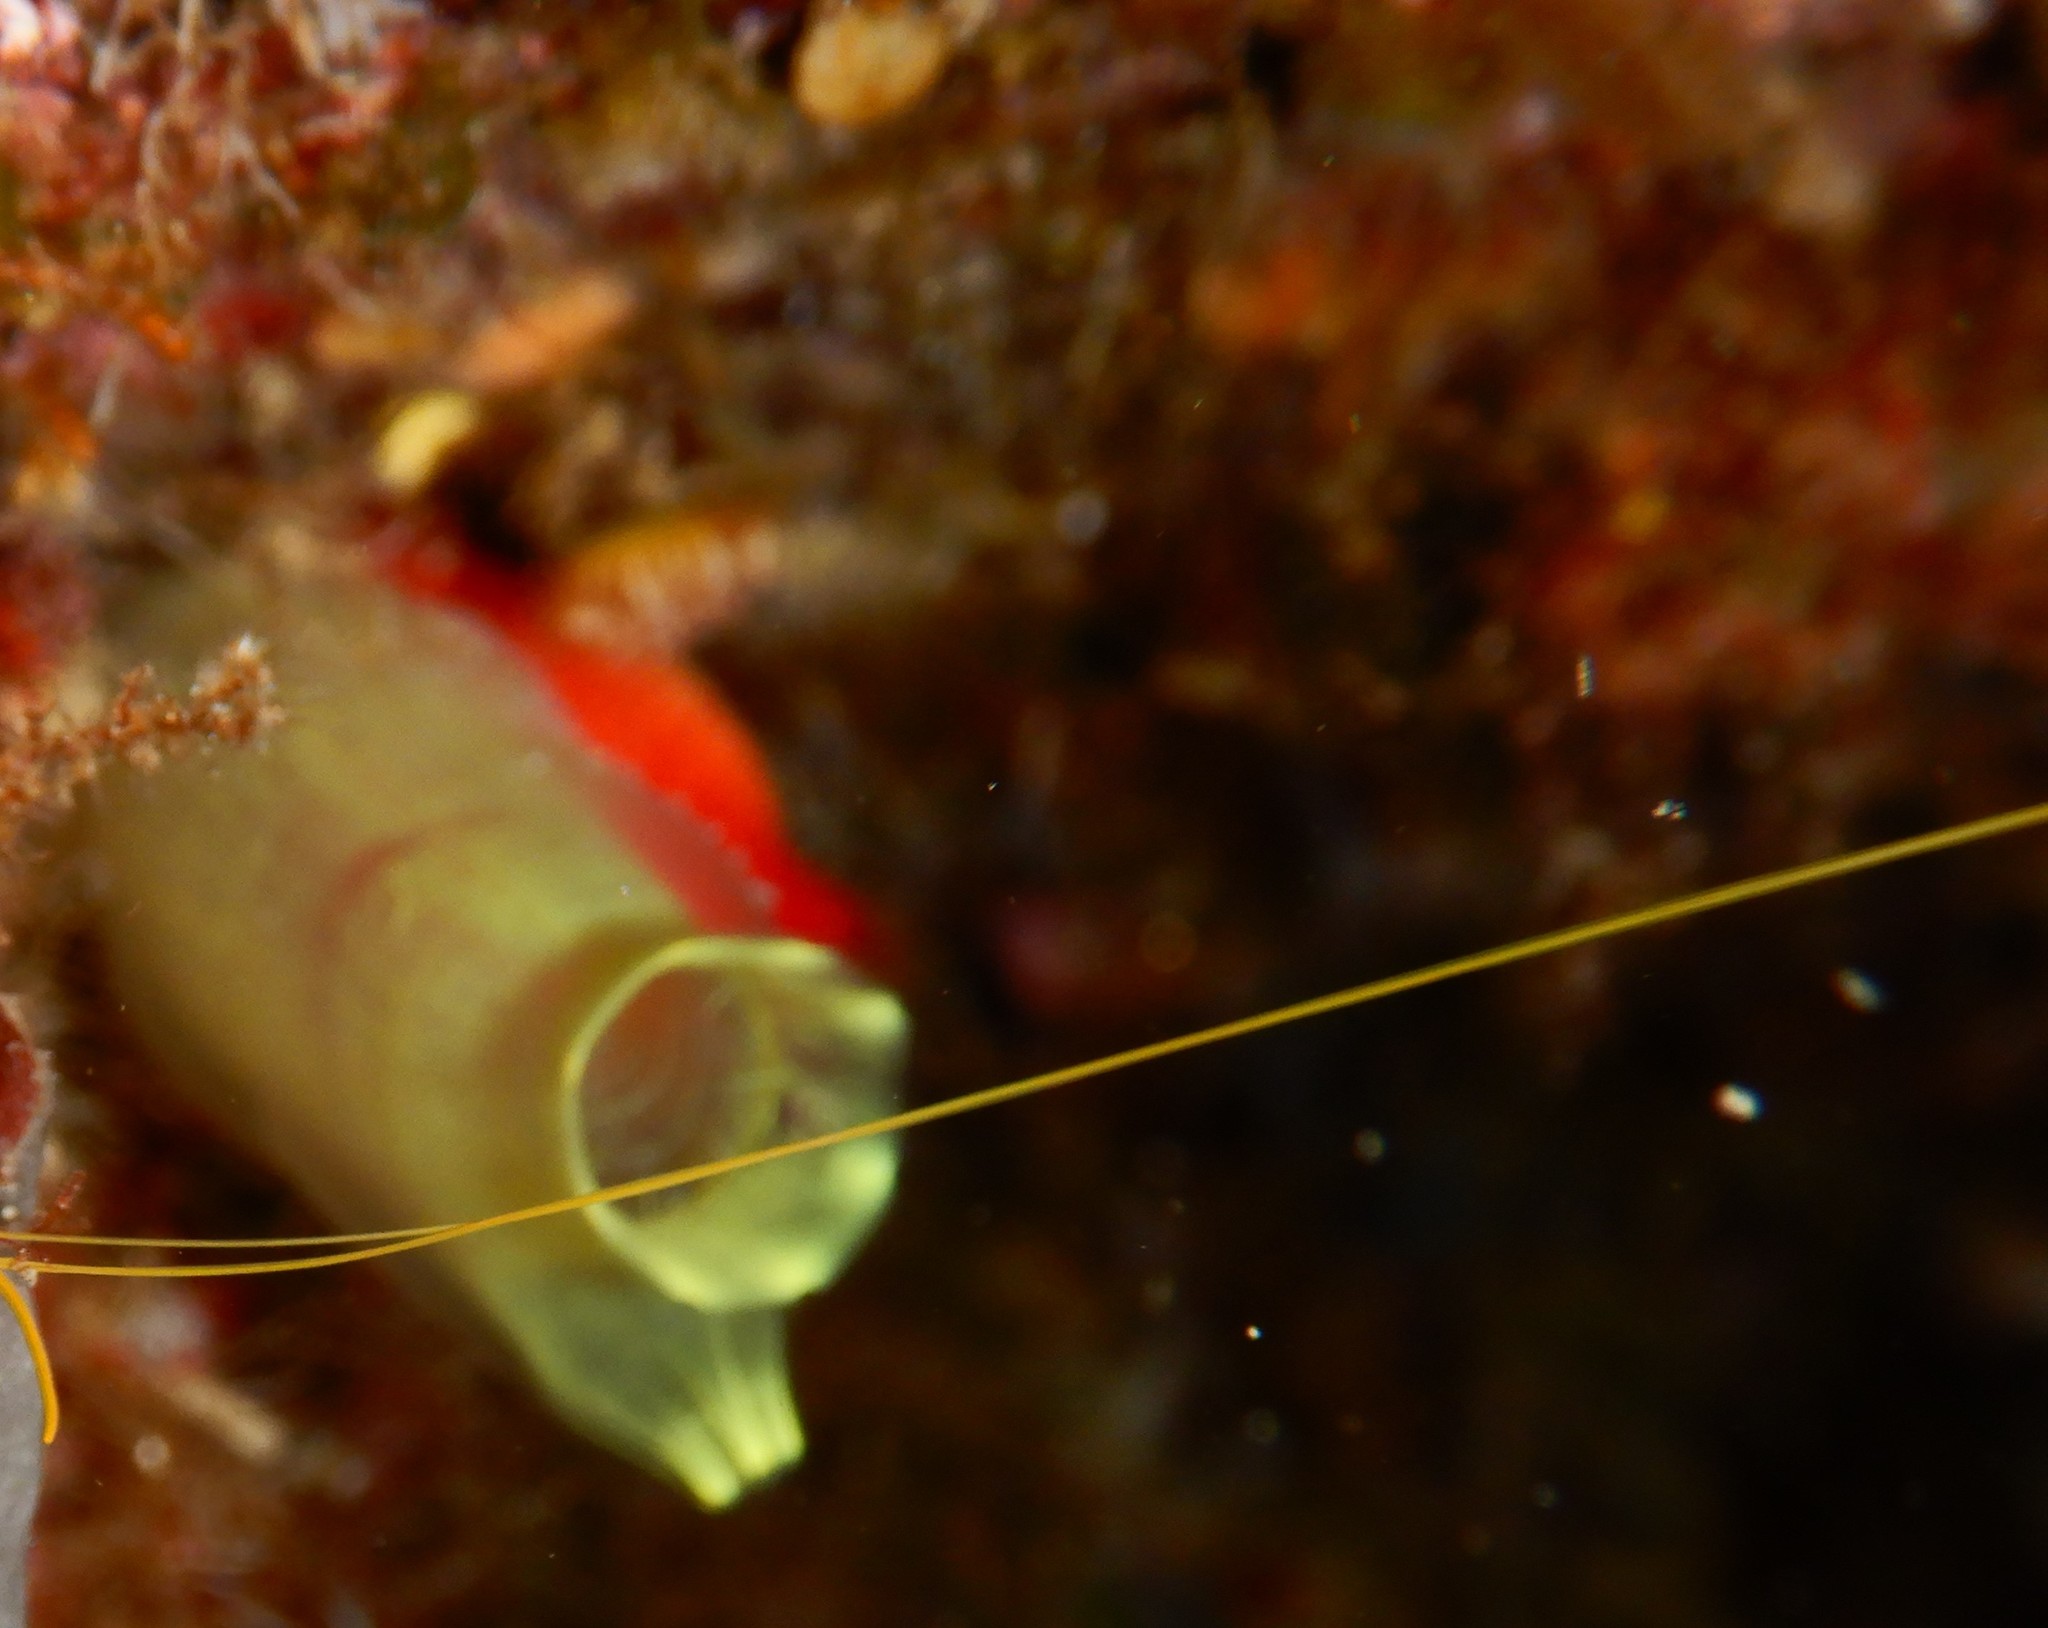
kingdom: Animalia
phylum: Chordata
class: Ascidiacea
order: Phlebobranchia
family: Cionidae
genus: Ciona
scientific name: Ciona edwardsi
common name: Yellow sea squirt
